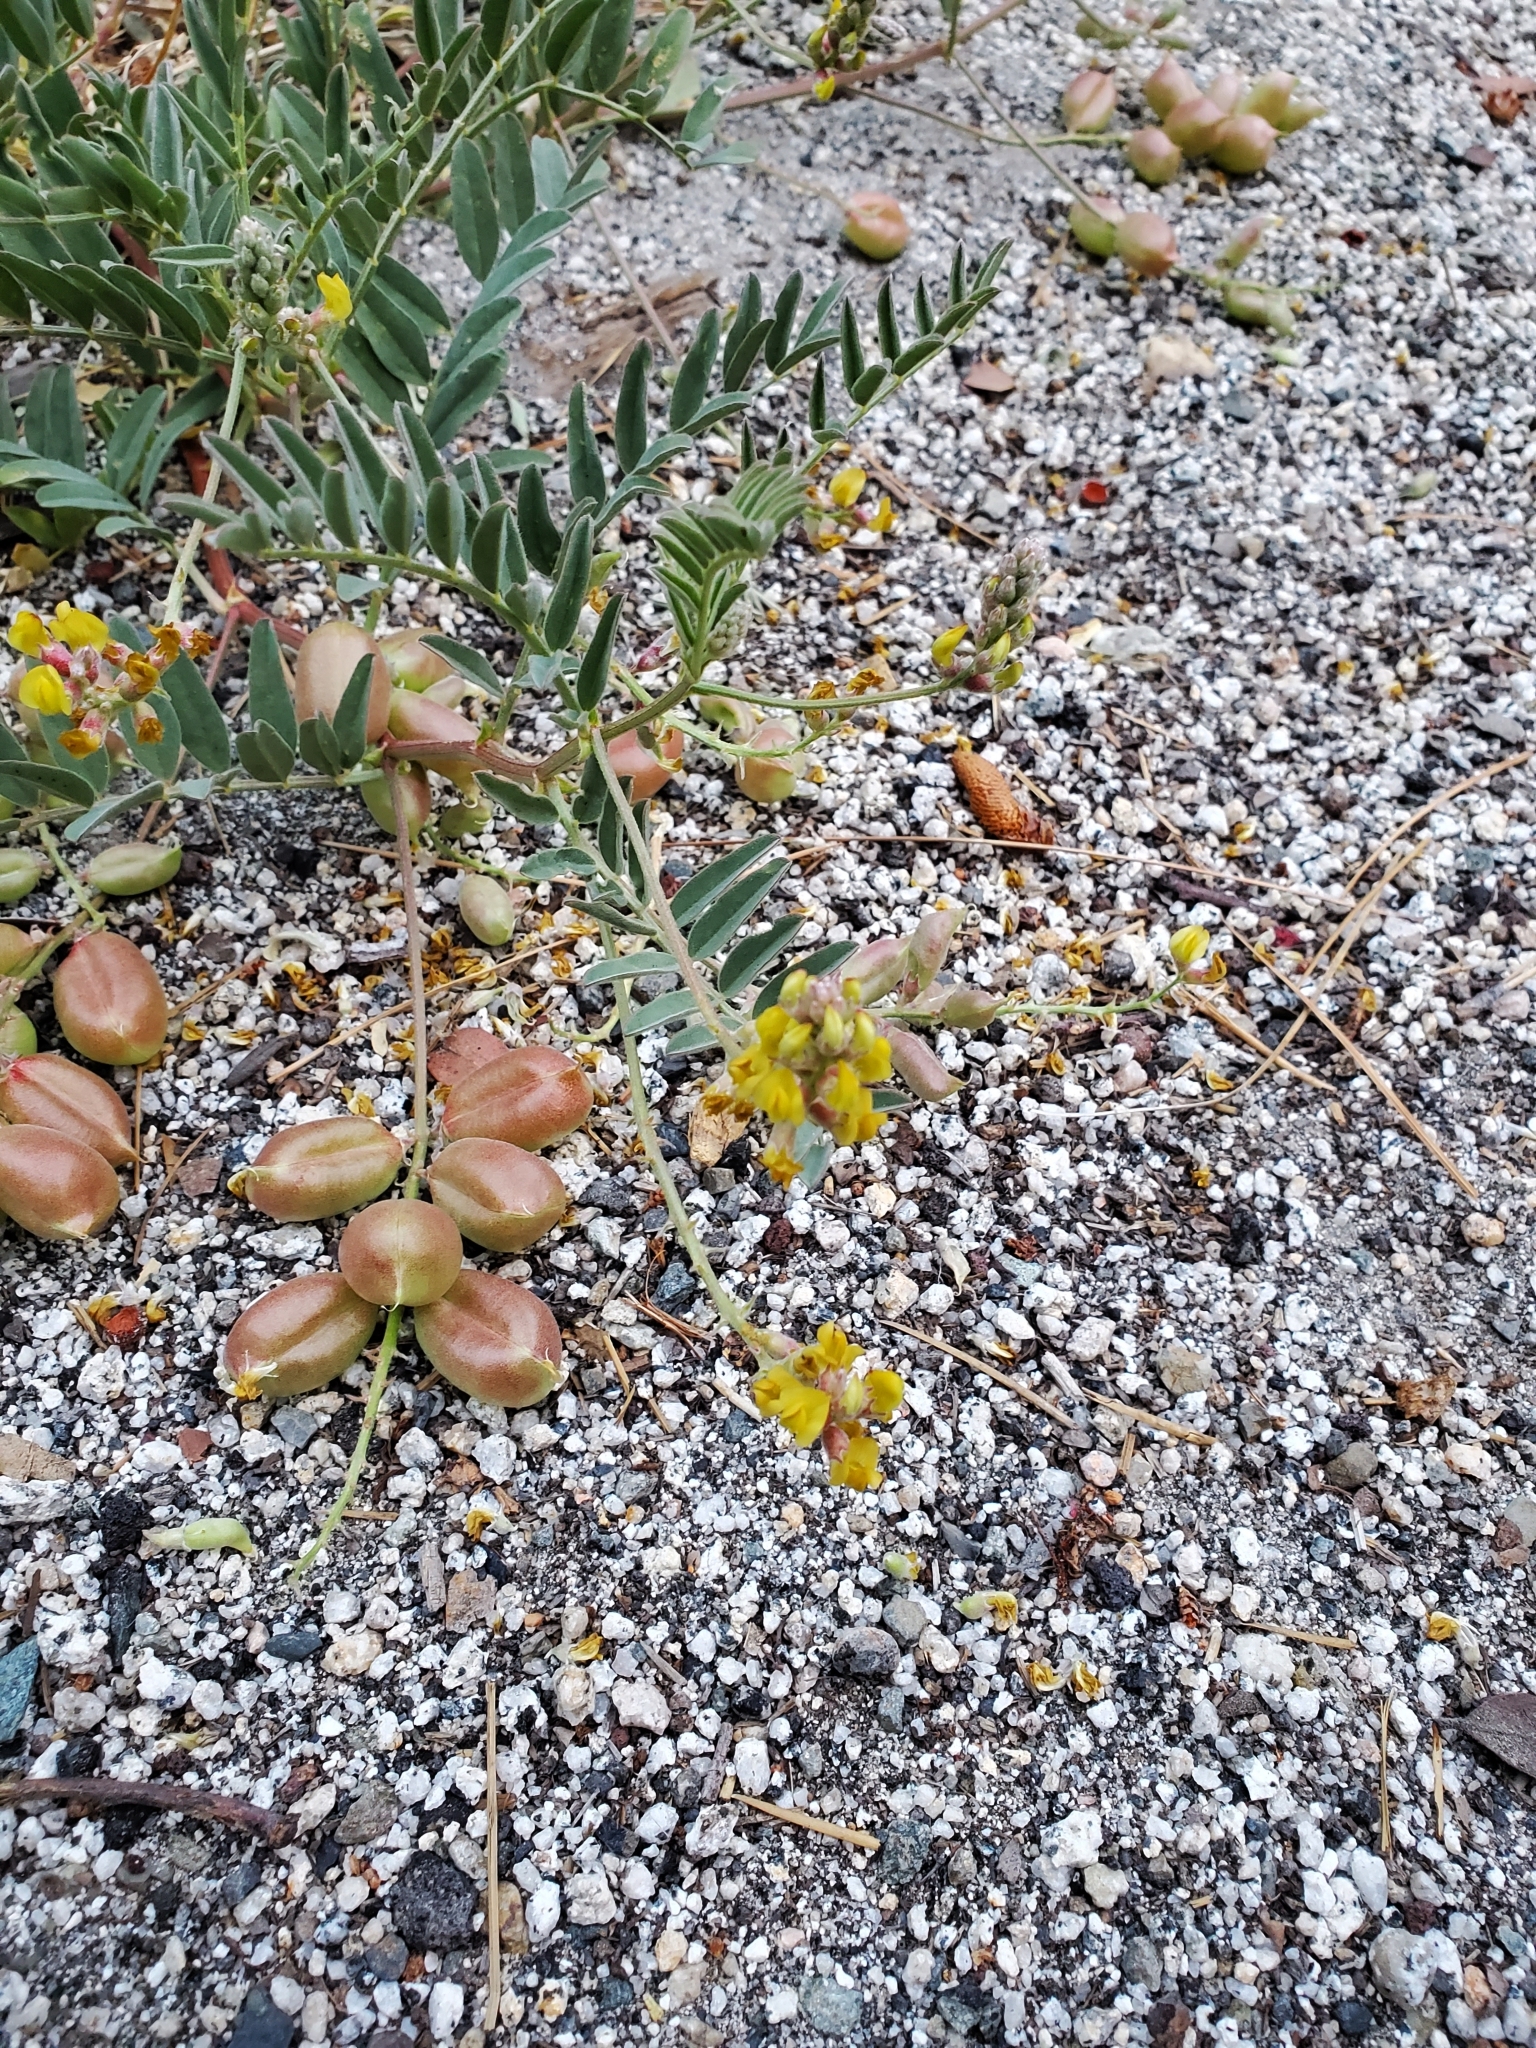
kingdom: Plantae
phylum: Tracheophyta
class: Magnoliopsida
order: Fabales
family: Fabaceae
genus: Astragalus
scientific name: Astragalus douglasii
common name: Jacumba milkvetch
